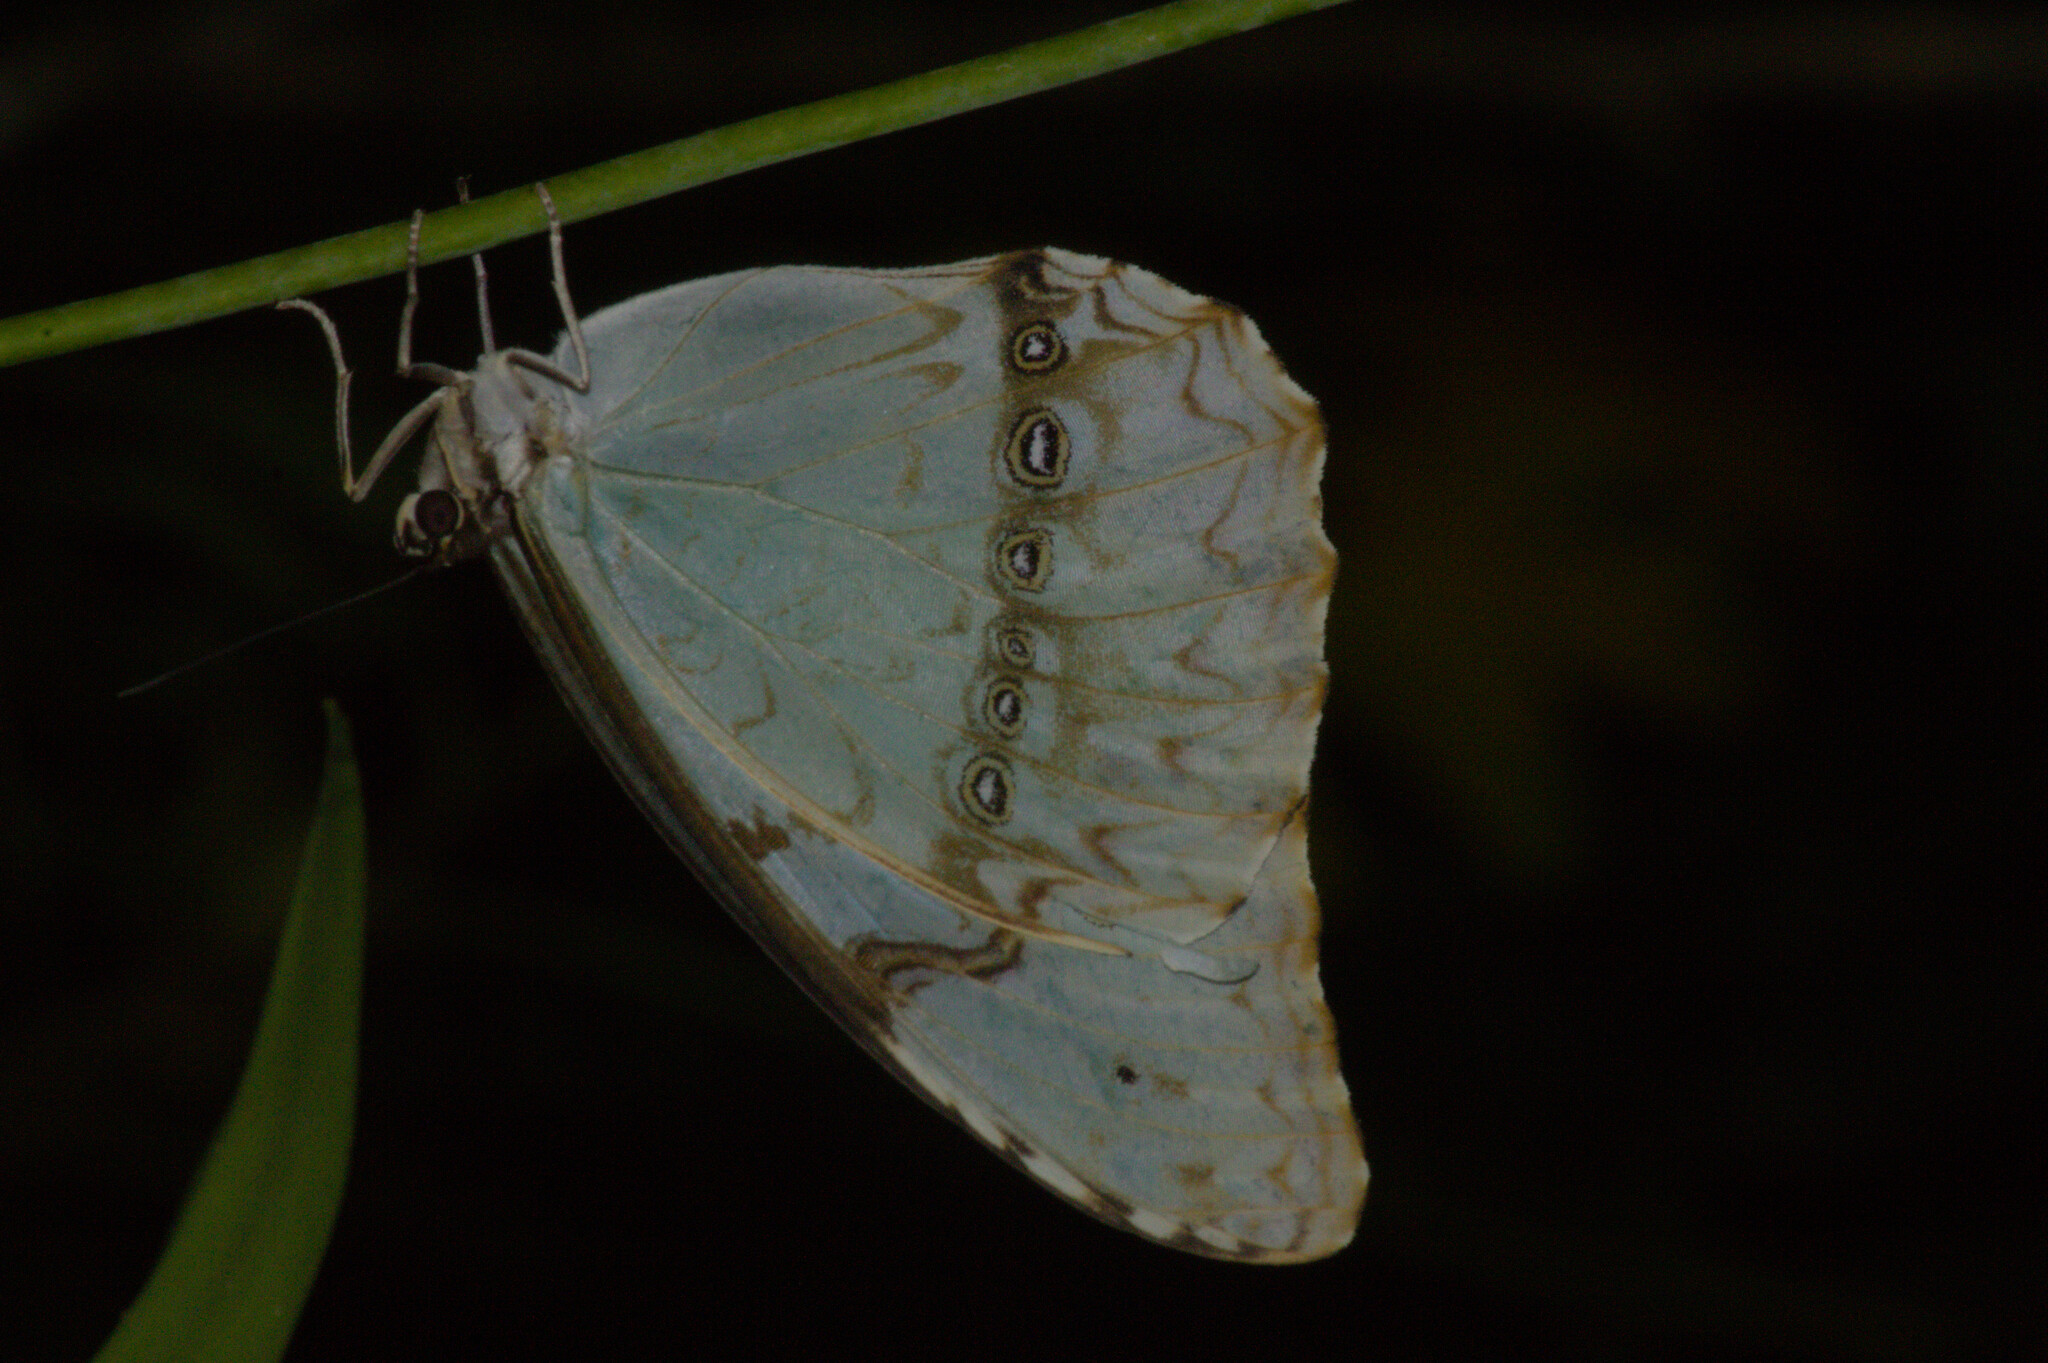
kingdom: Animalia
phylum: Arthropoda
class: Insecta
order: Lepidoptera
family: Nymphalidae
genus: Morpho
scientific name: Morpho epistrophus
